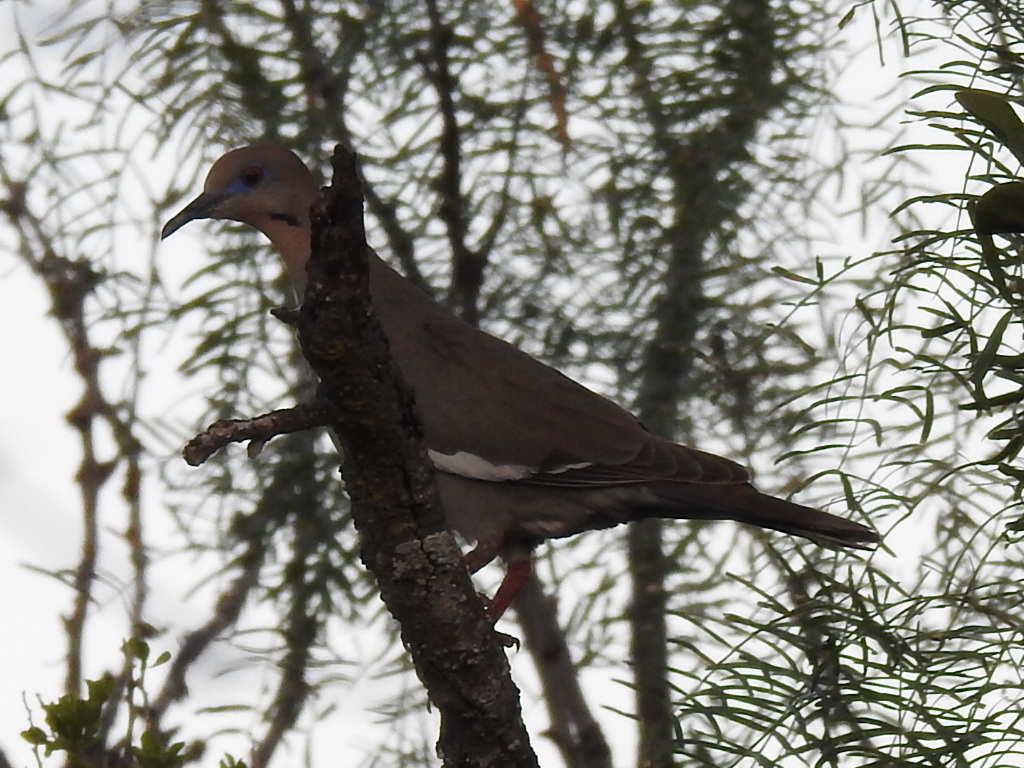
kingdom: Animalia
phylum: Chordata
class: Aves
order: Columbiformes
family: Columbidae
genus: Zenaida
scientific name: Zenaida asiatica
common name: White-winged dove
